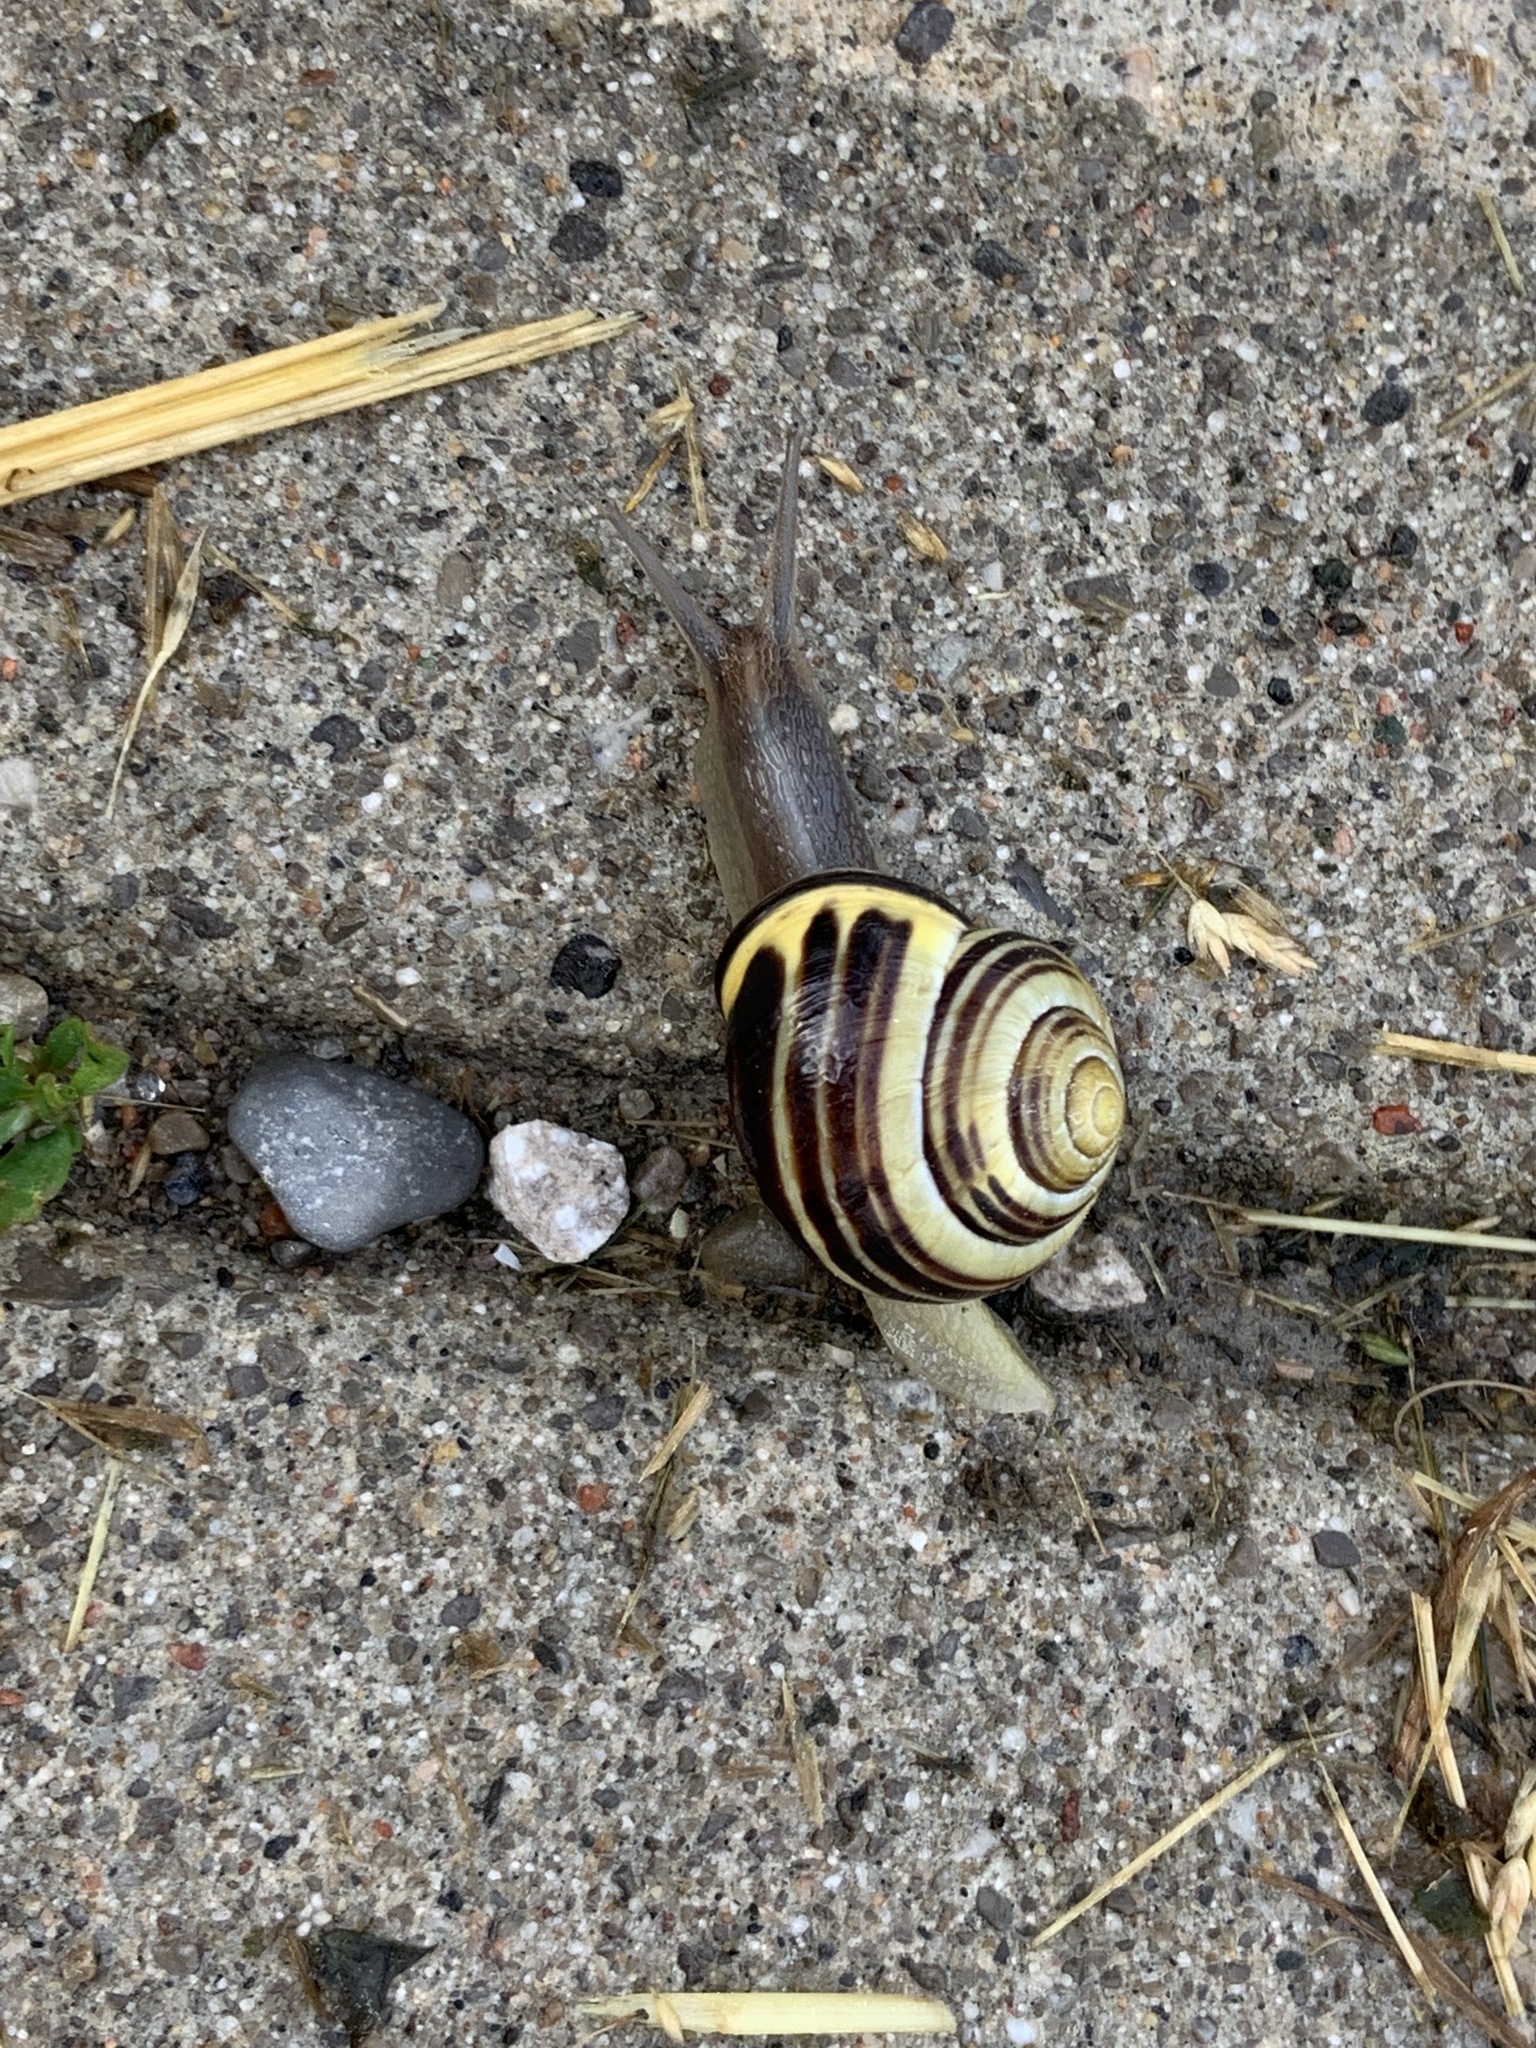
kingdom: Animalia
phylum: Mollusca
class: Gastropoda
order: Stylommatophora
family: Helicidae
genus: Cepaea
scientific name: Cepaea nemoralis
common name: Grovesnail
